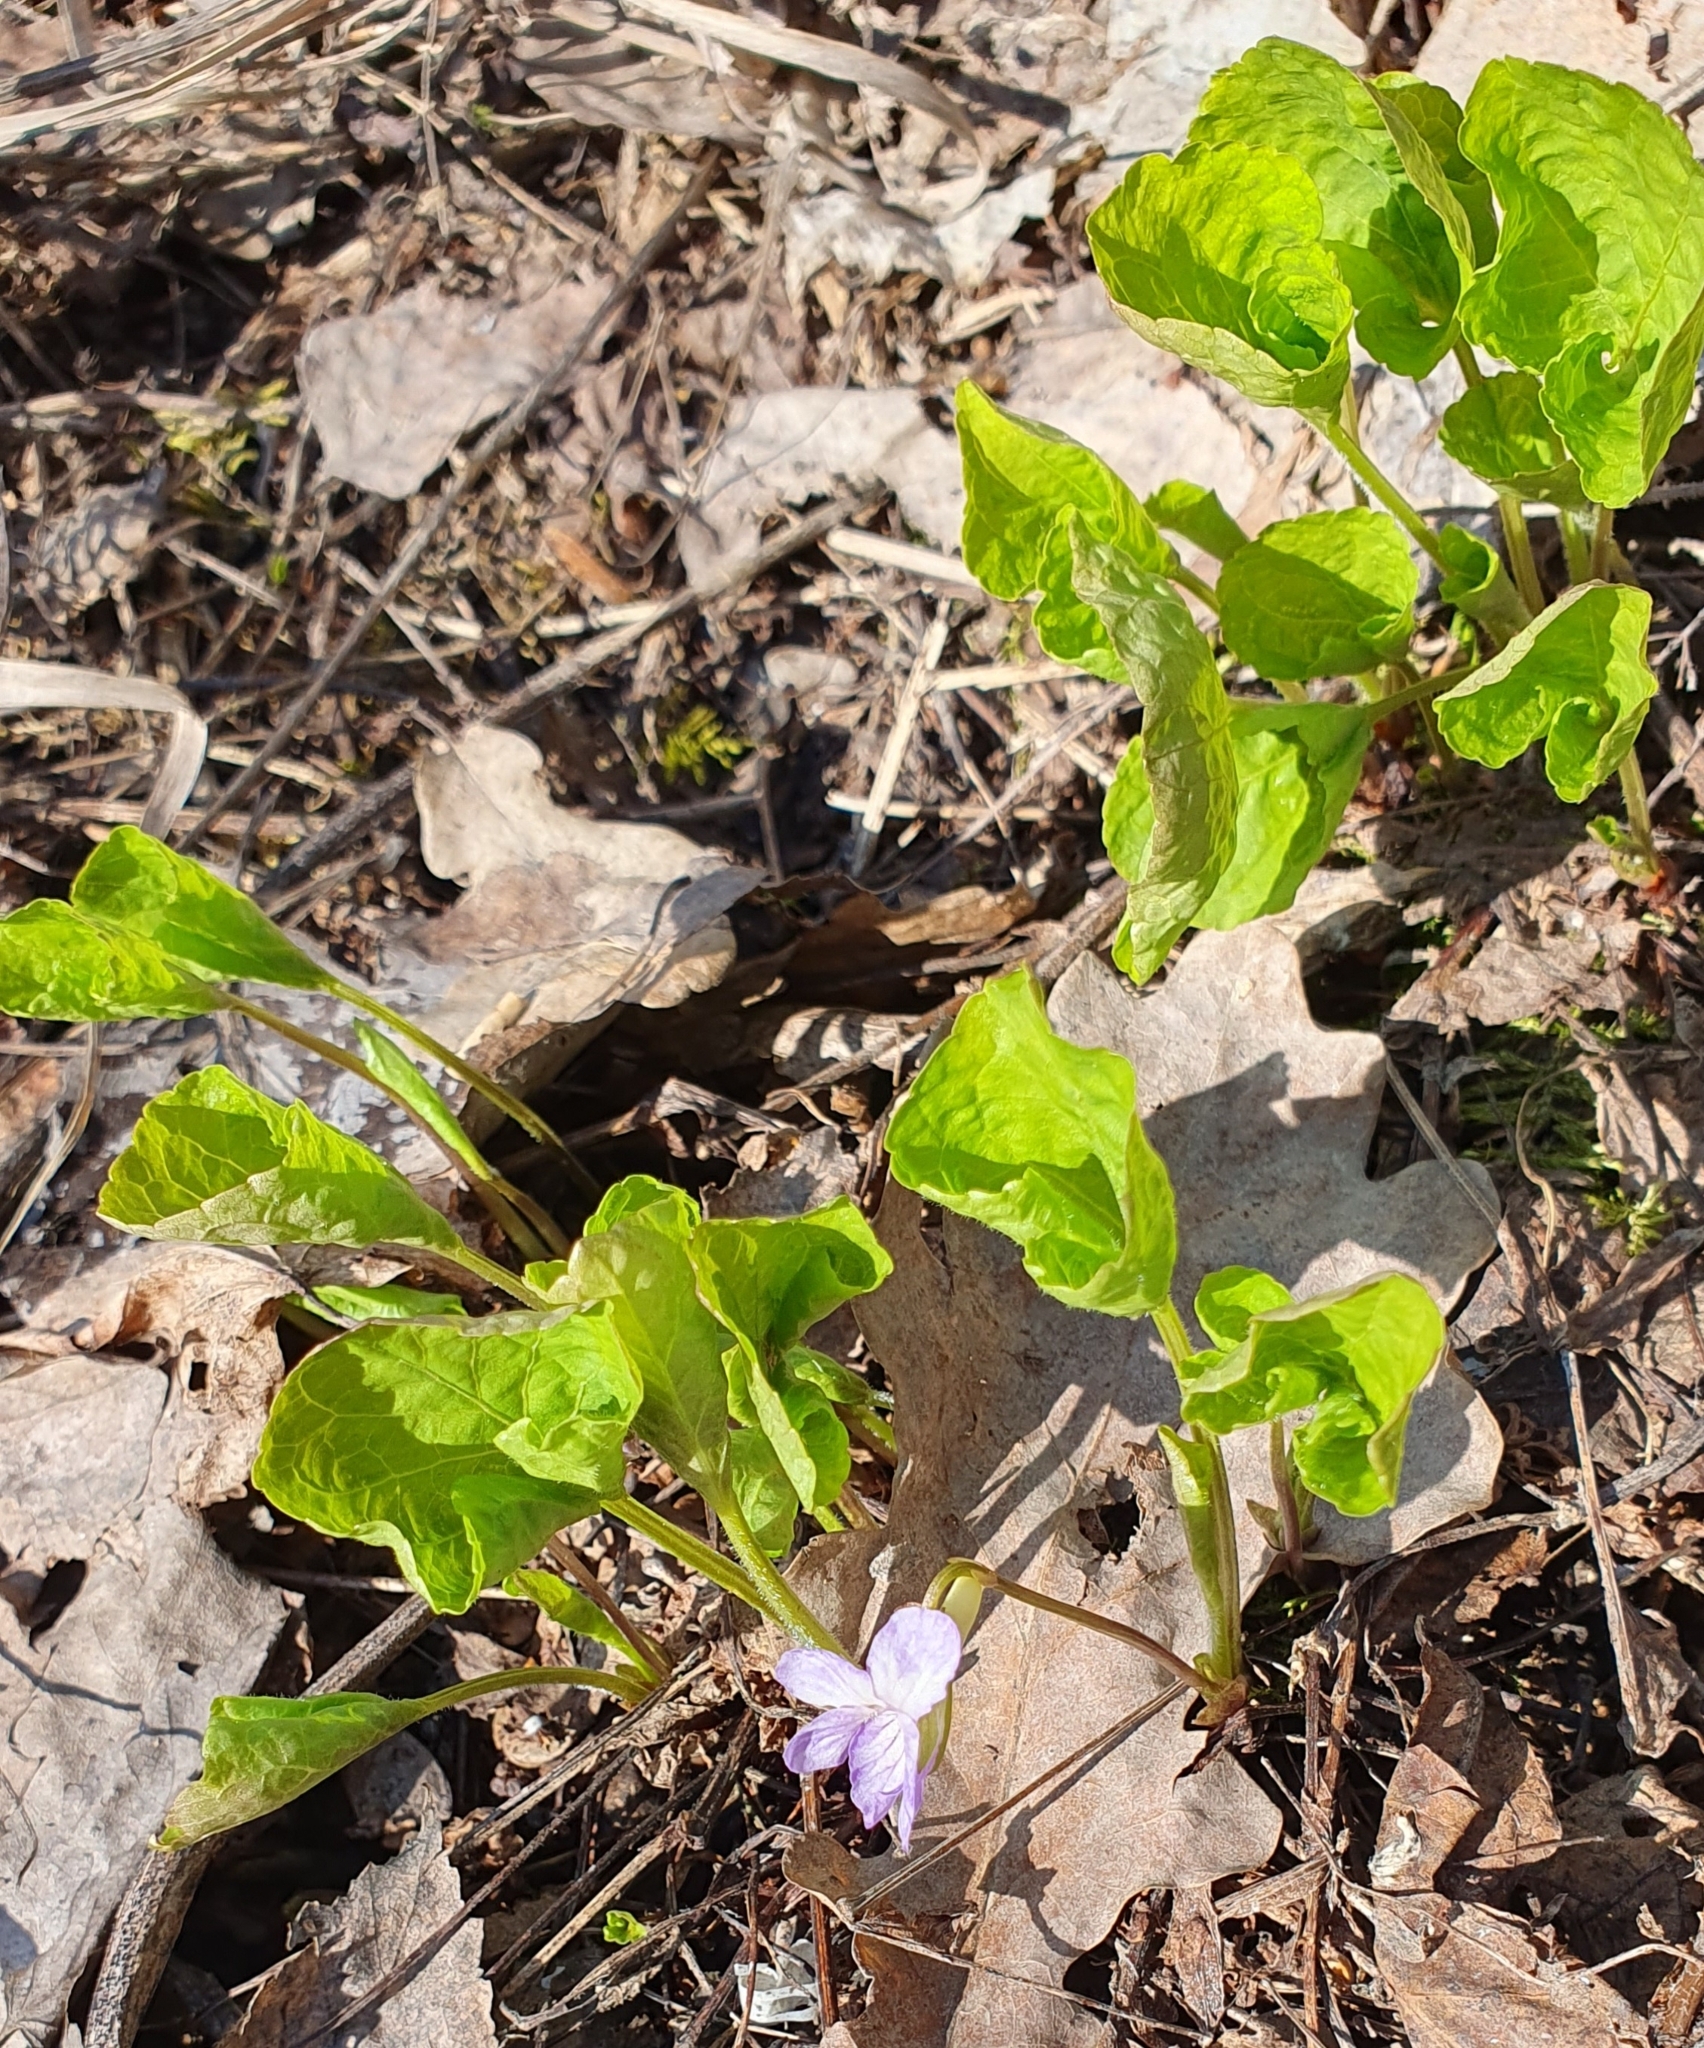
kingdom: Plantae
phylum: Tracheophyta
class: Magnoliopsida
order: Malpighiales
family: Violaceae
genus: Viola
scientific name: Viola mirabilis
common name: Wonder violet
